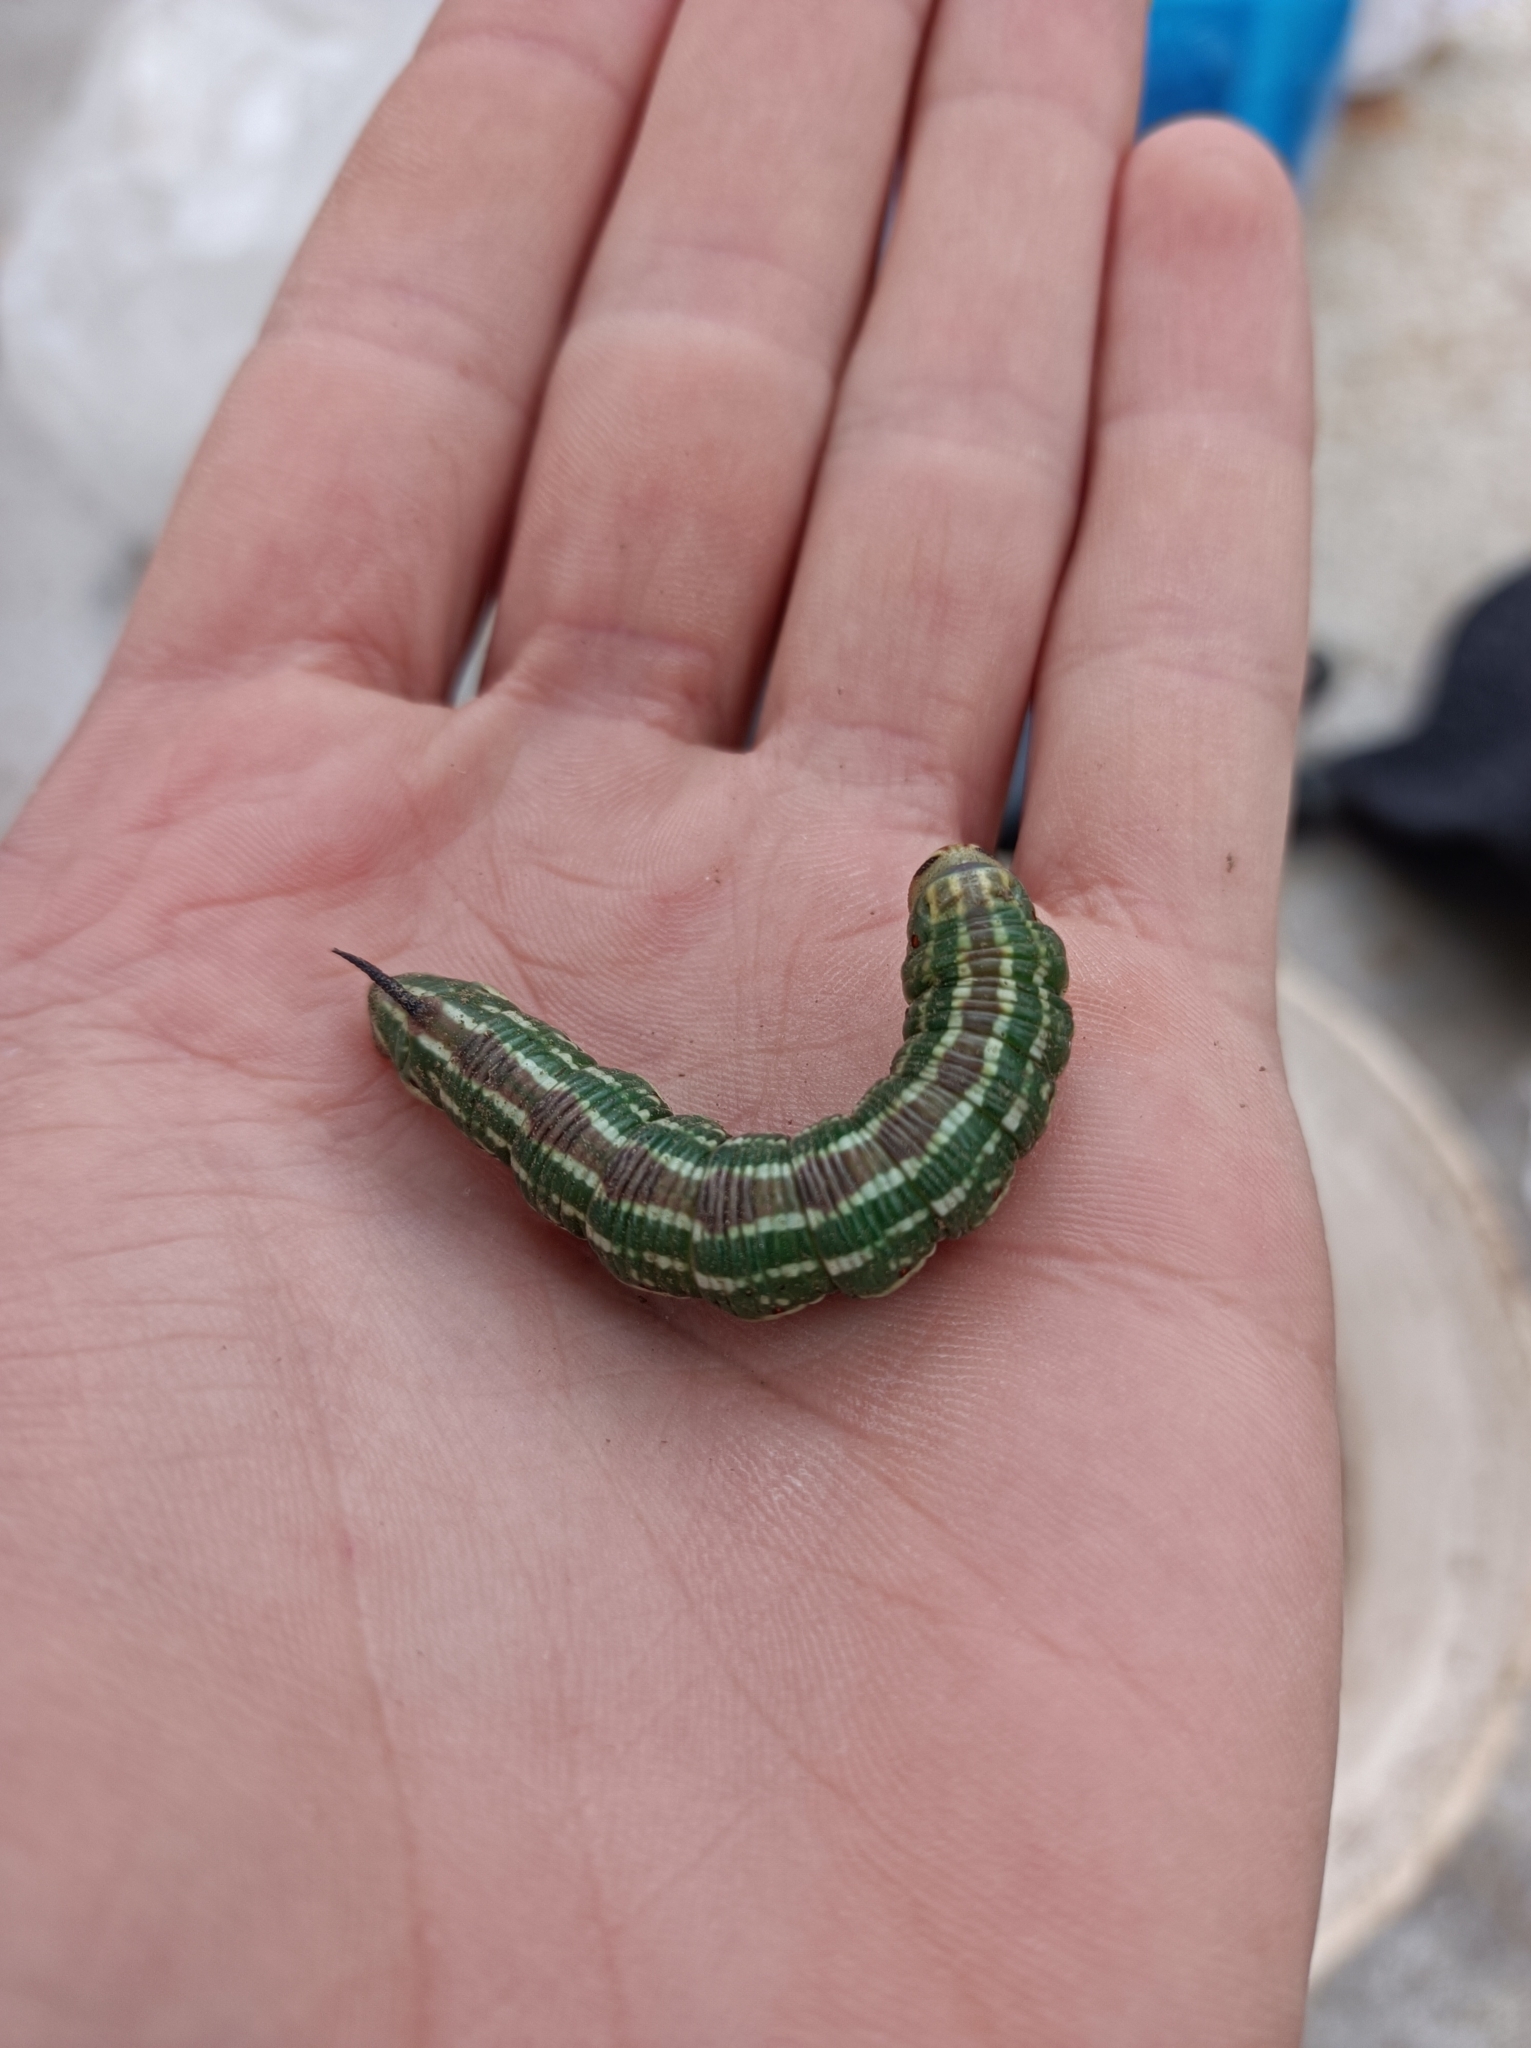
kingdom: Animalia
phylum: Arthropoda
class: Insecta
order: Lepidoptera
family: Sphingidae
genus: Sphinx
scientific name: Sphinx pinastri
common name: Pine hawk-moth
